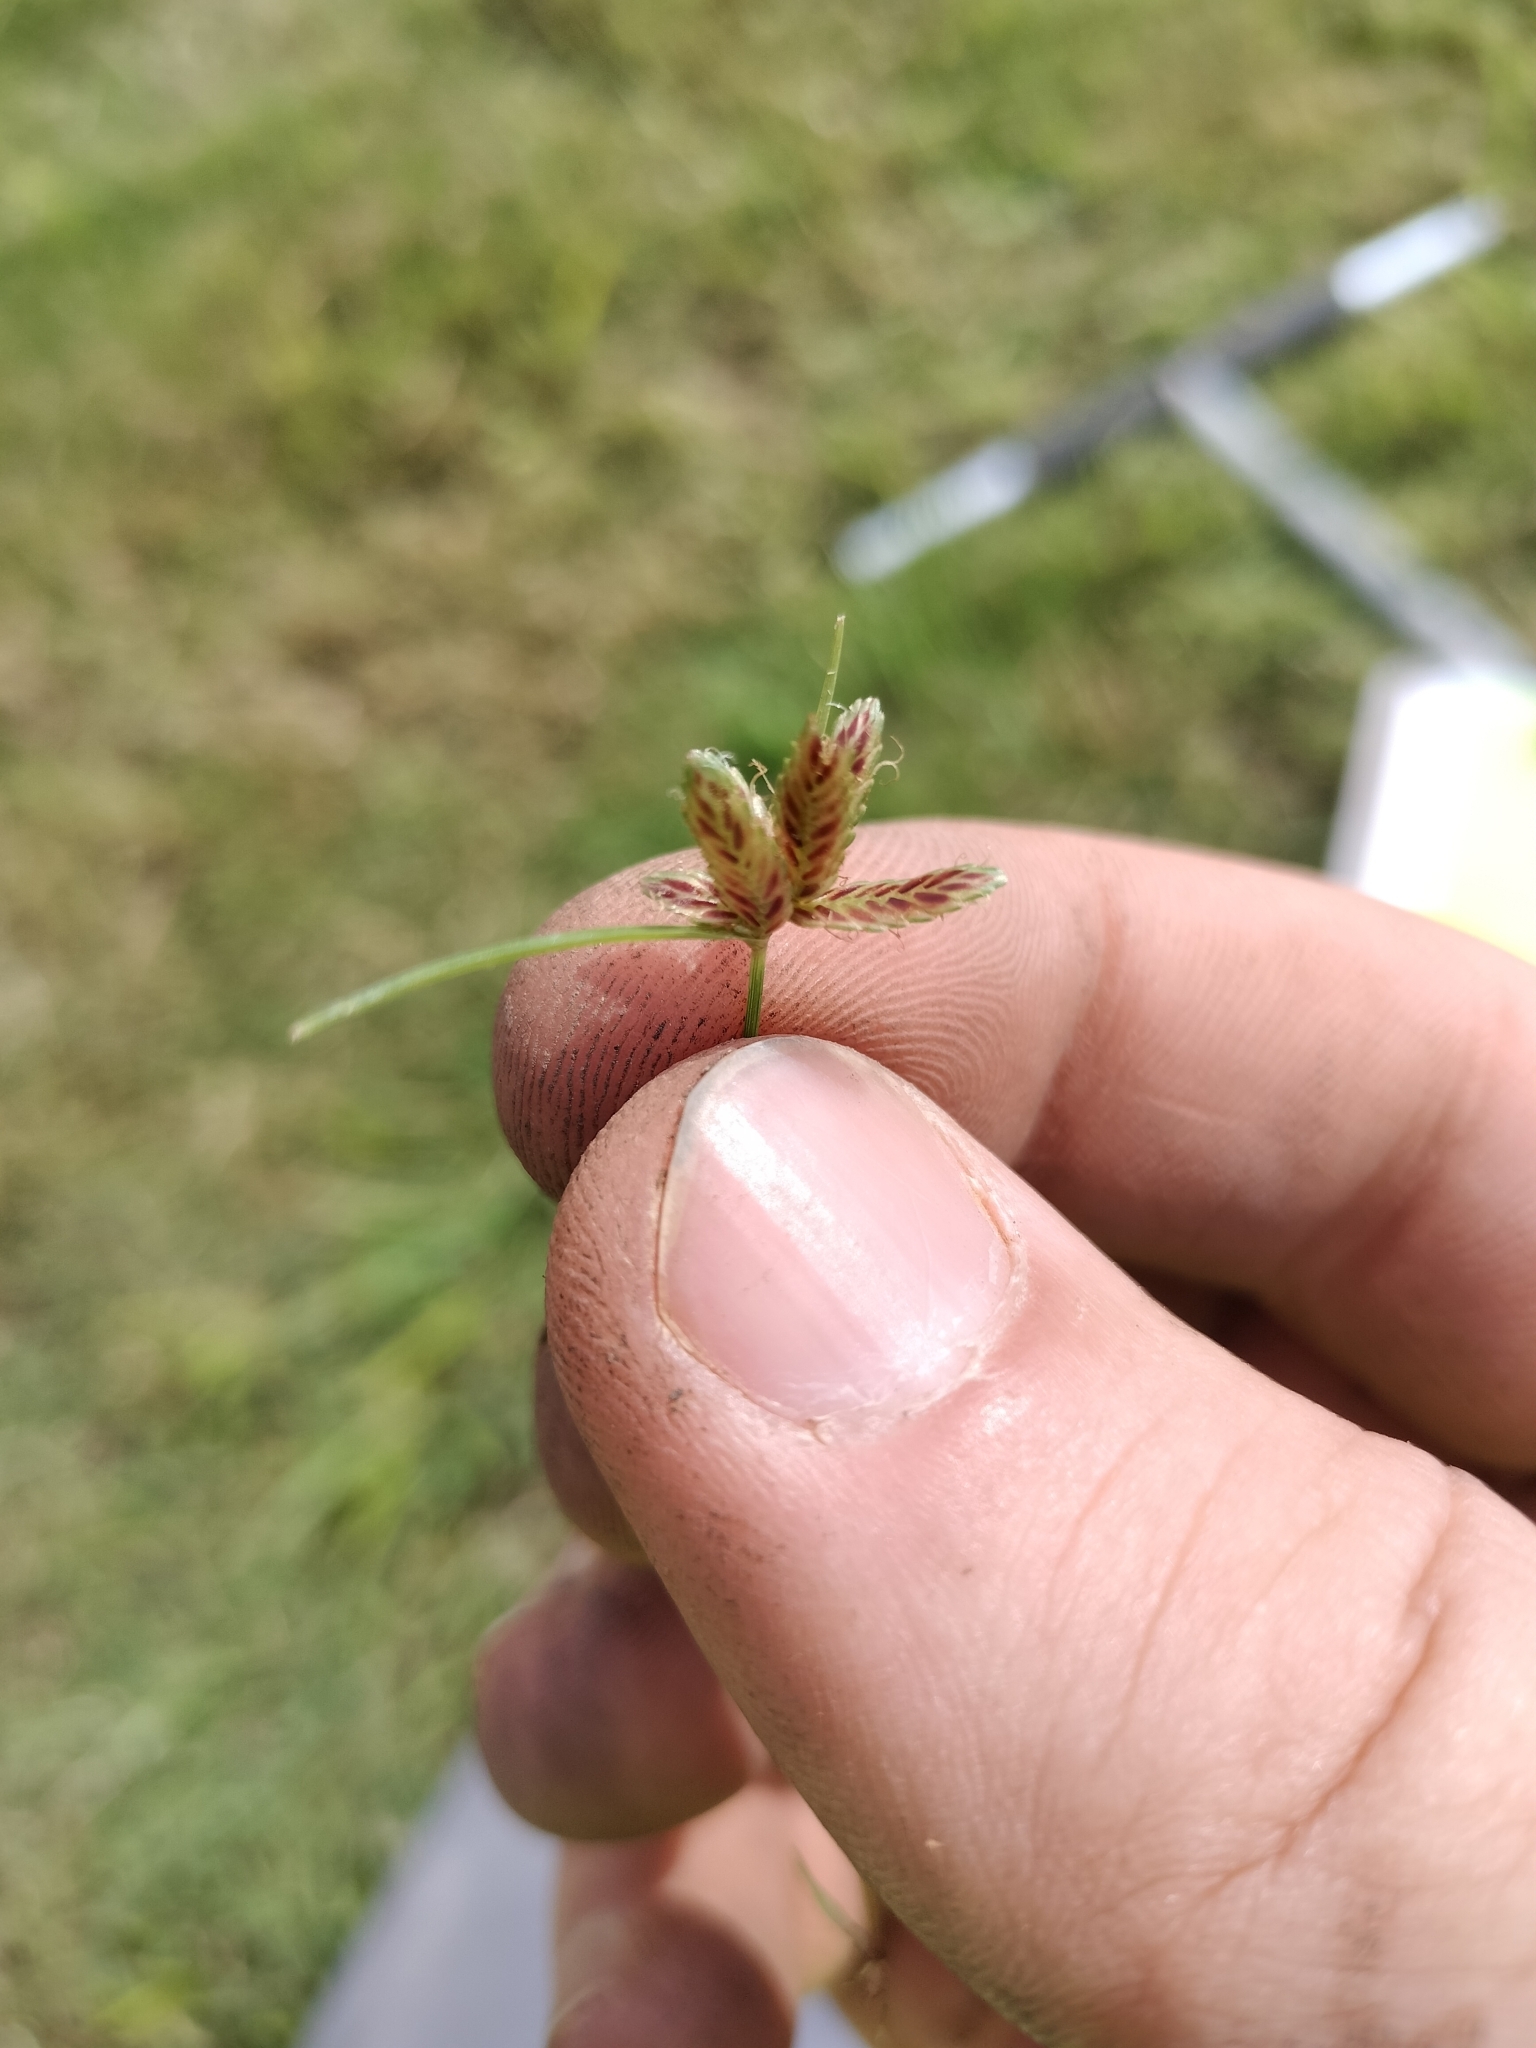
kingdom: Plantae
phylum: Tracheophyta
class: Liliopsida
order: Poales
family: Cyperaceae
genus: Cyperus
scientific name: Cyperus bipartitus
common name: Brook flatsedge
